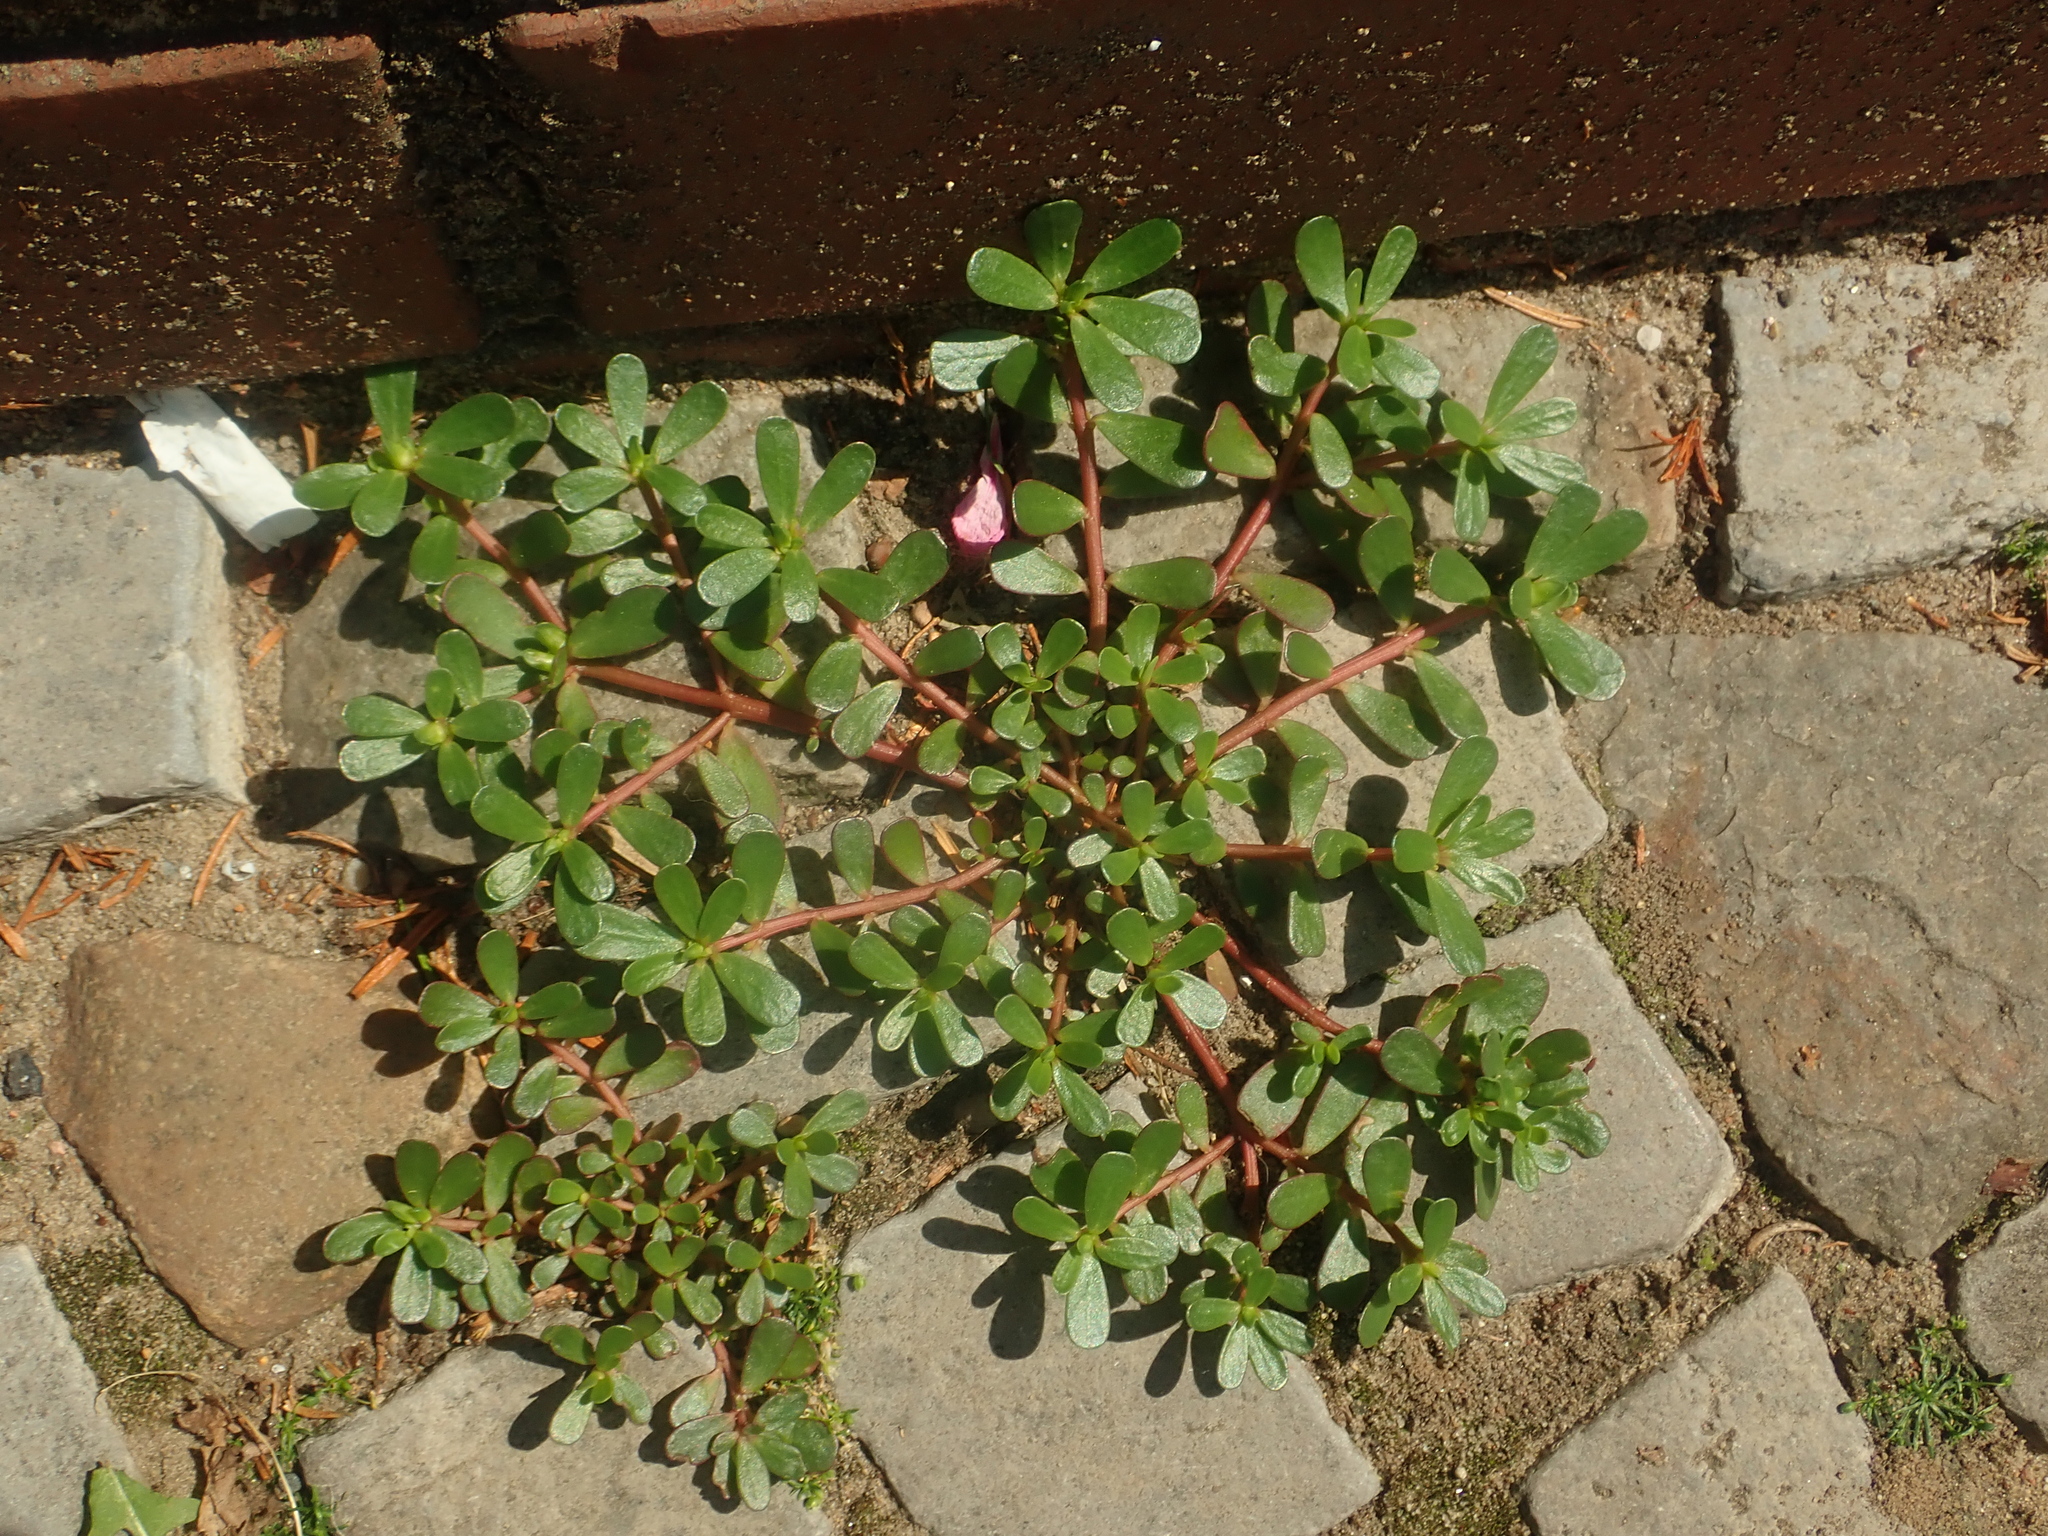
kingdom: Plantae
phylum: Tracheophyta
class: Magnoliopsida
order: Caryophyllales
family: Portulacaceae
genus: Portulaca
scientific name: Portulaca oleracea
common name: Common purslane
